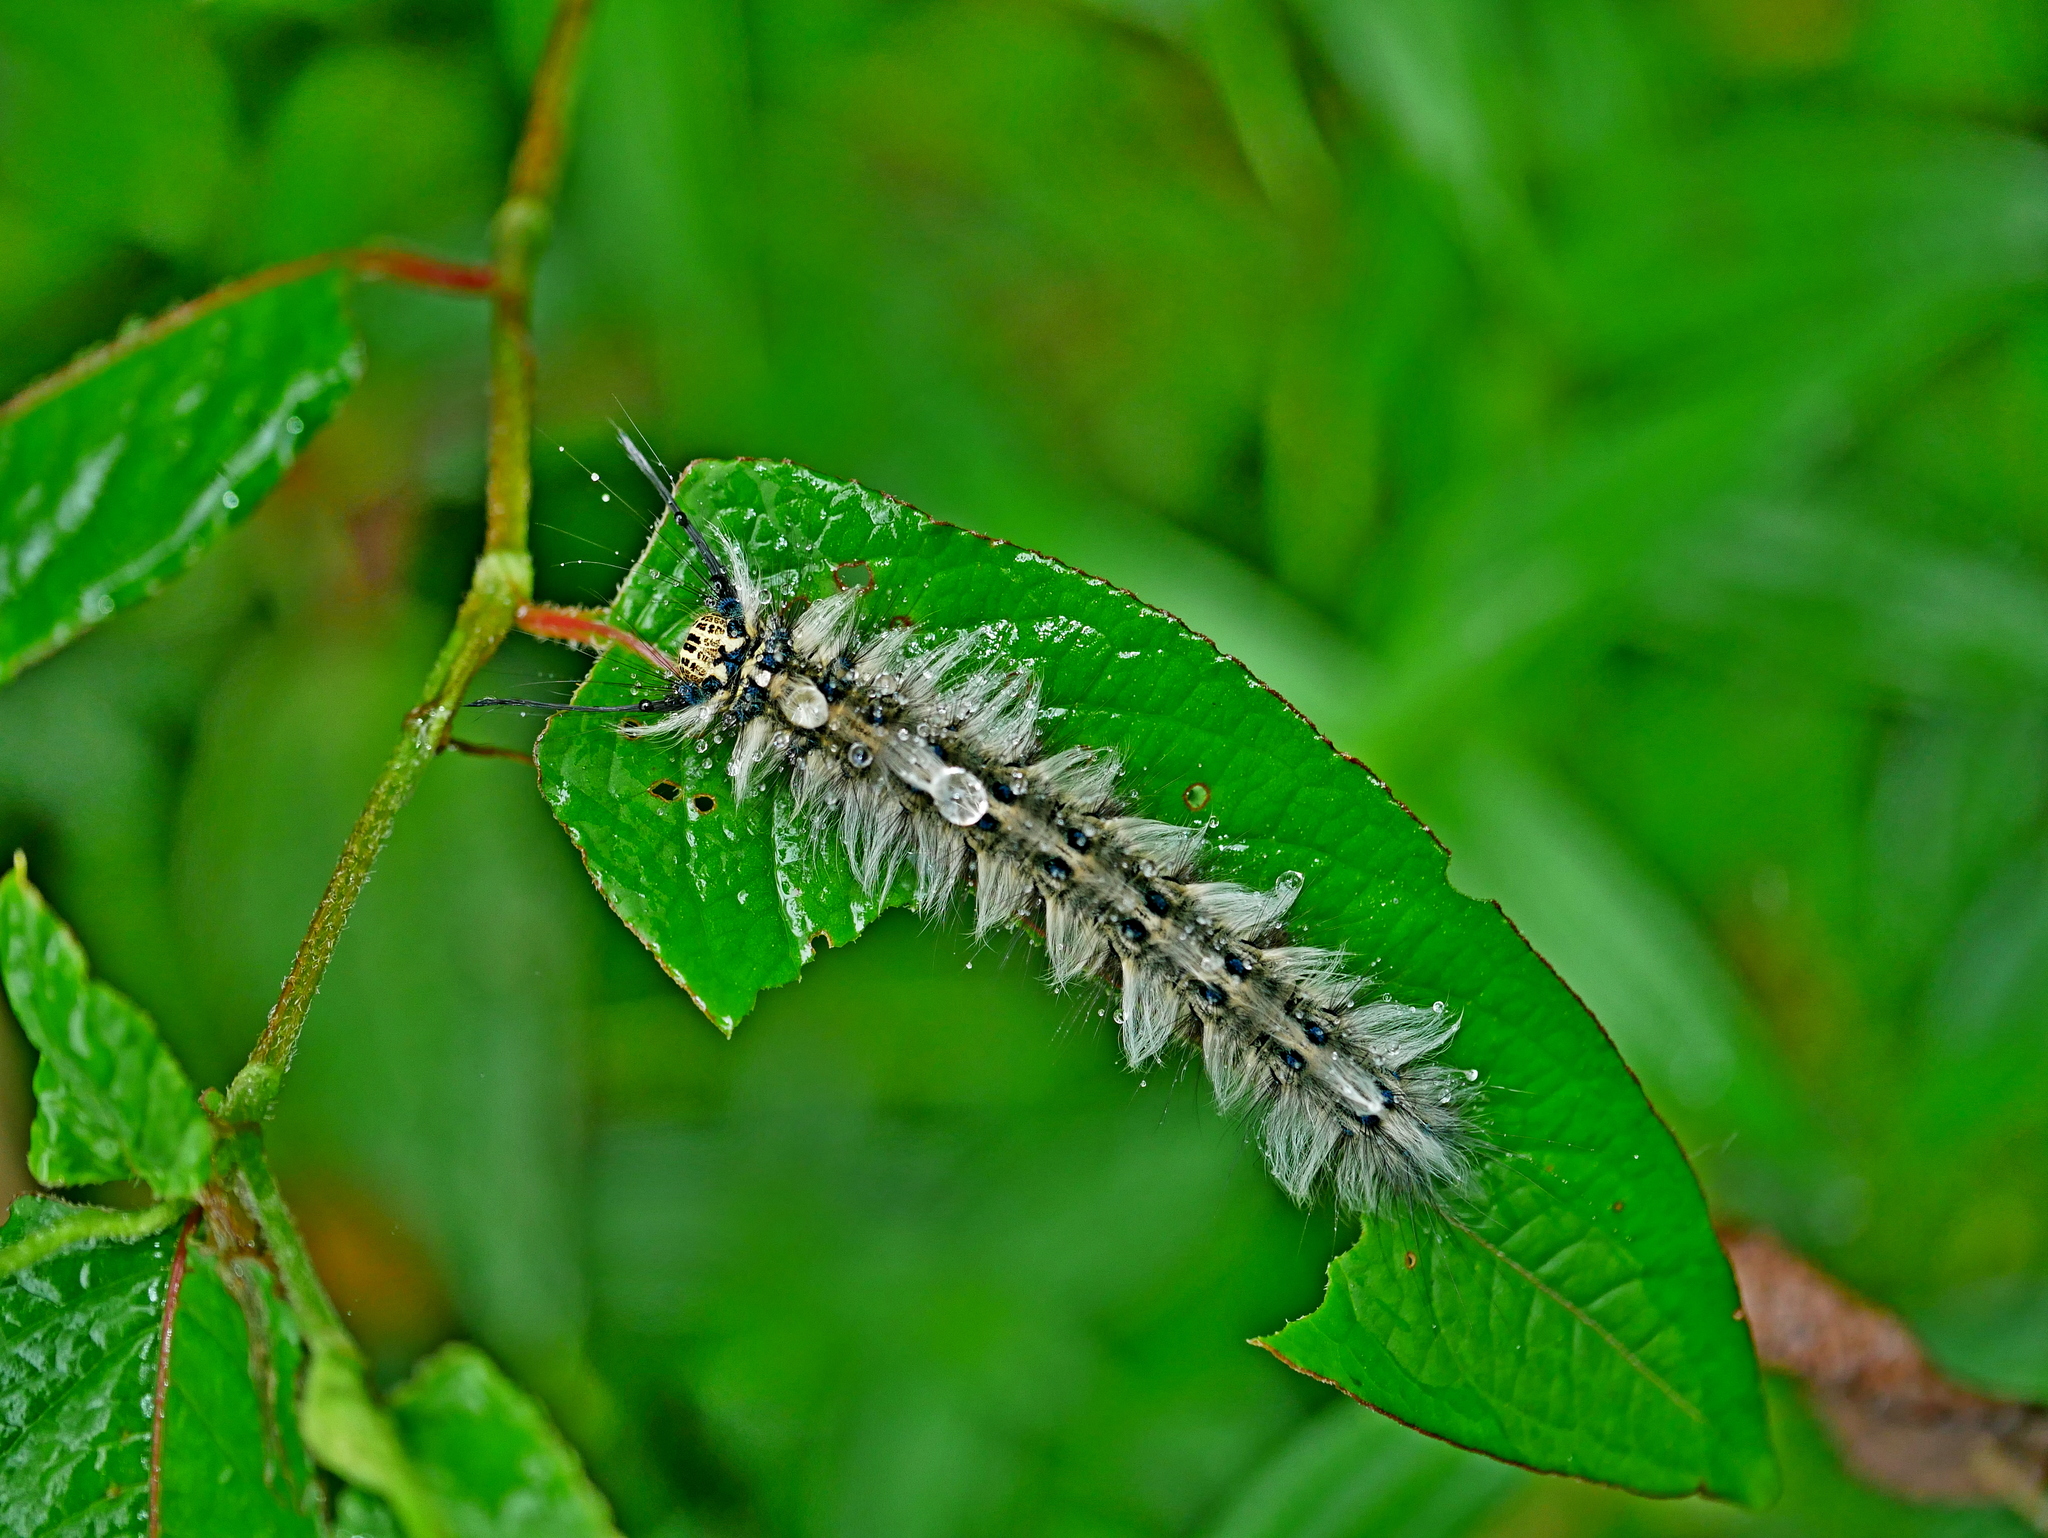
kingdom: Animalia
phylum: Arthropoda
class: Insecta
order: Lepidoptera
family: Lasiocampidae
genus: Trabala
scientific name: Trabala vishnou
